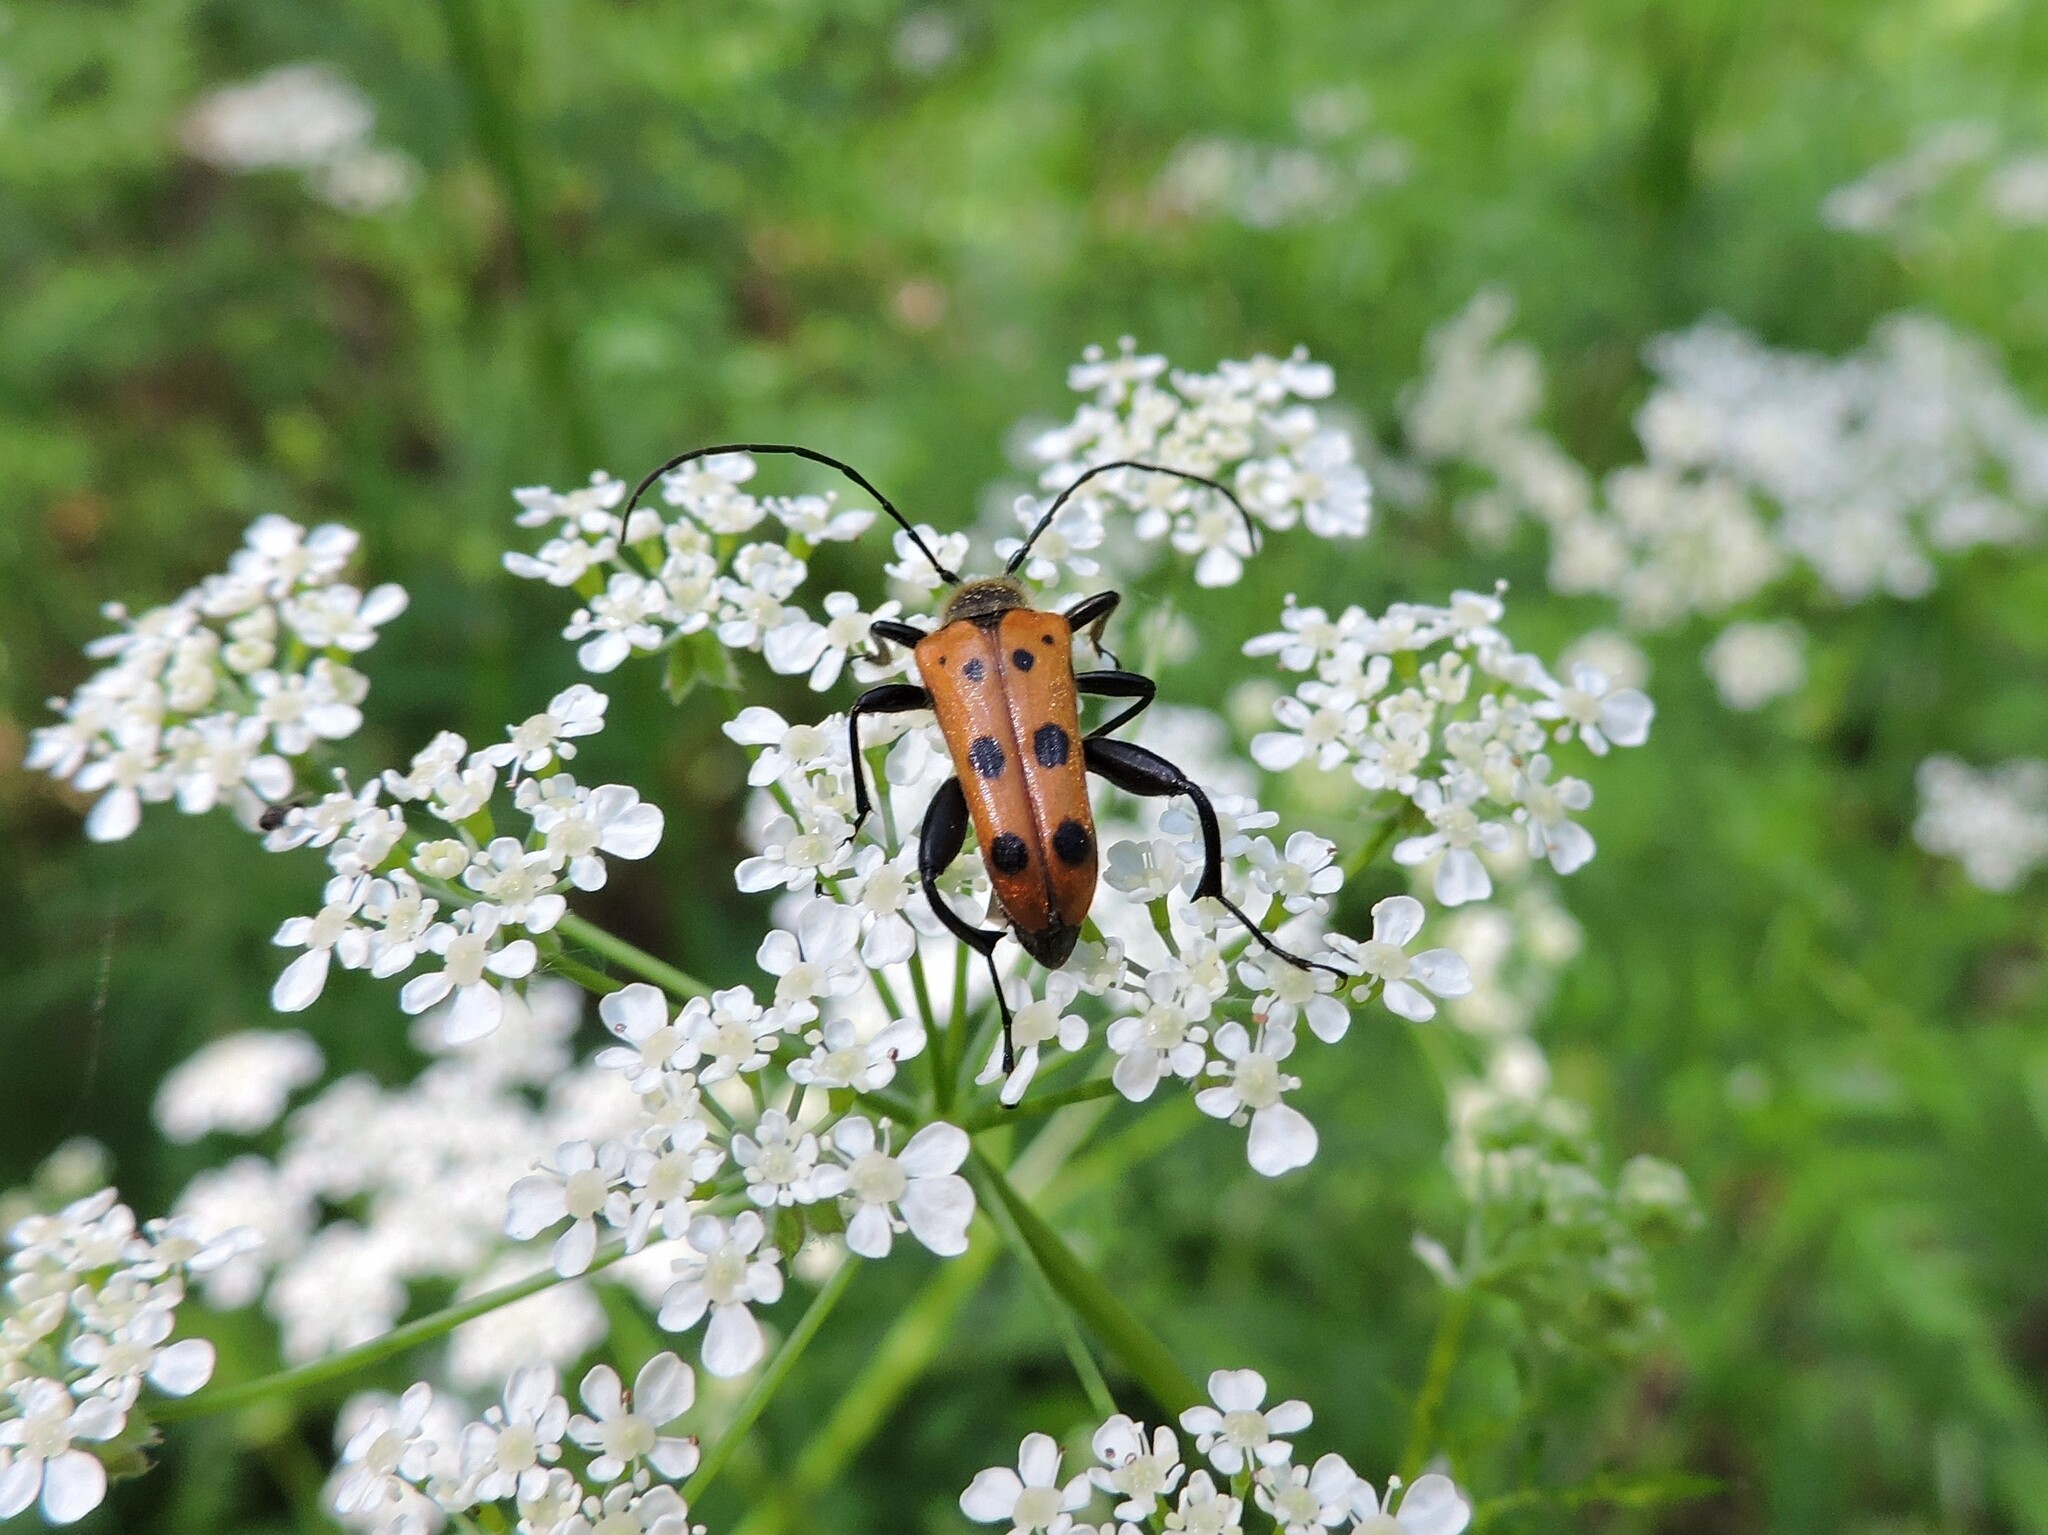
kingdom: Animalia
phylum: Arthropoda
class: Insecta
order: Coleoptera
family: Cerambycidae
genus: Oedecnema
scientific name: Oedecnema gebleri
